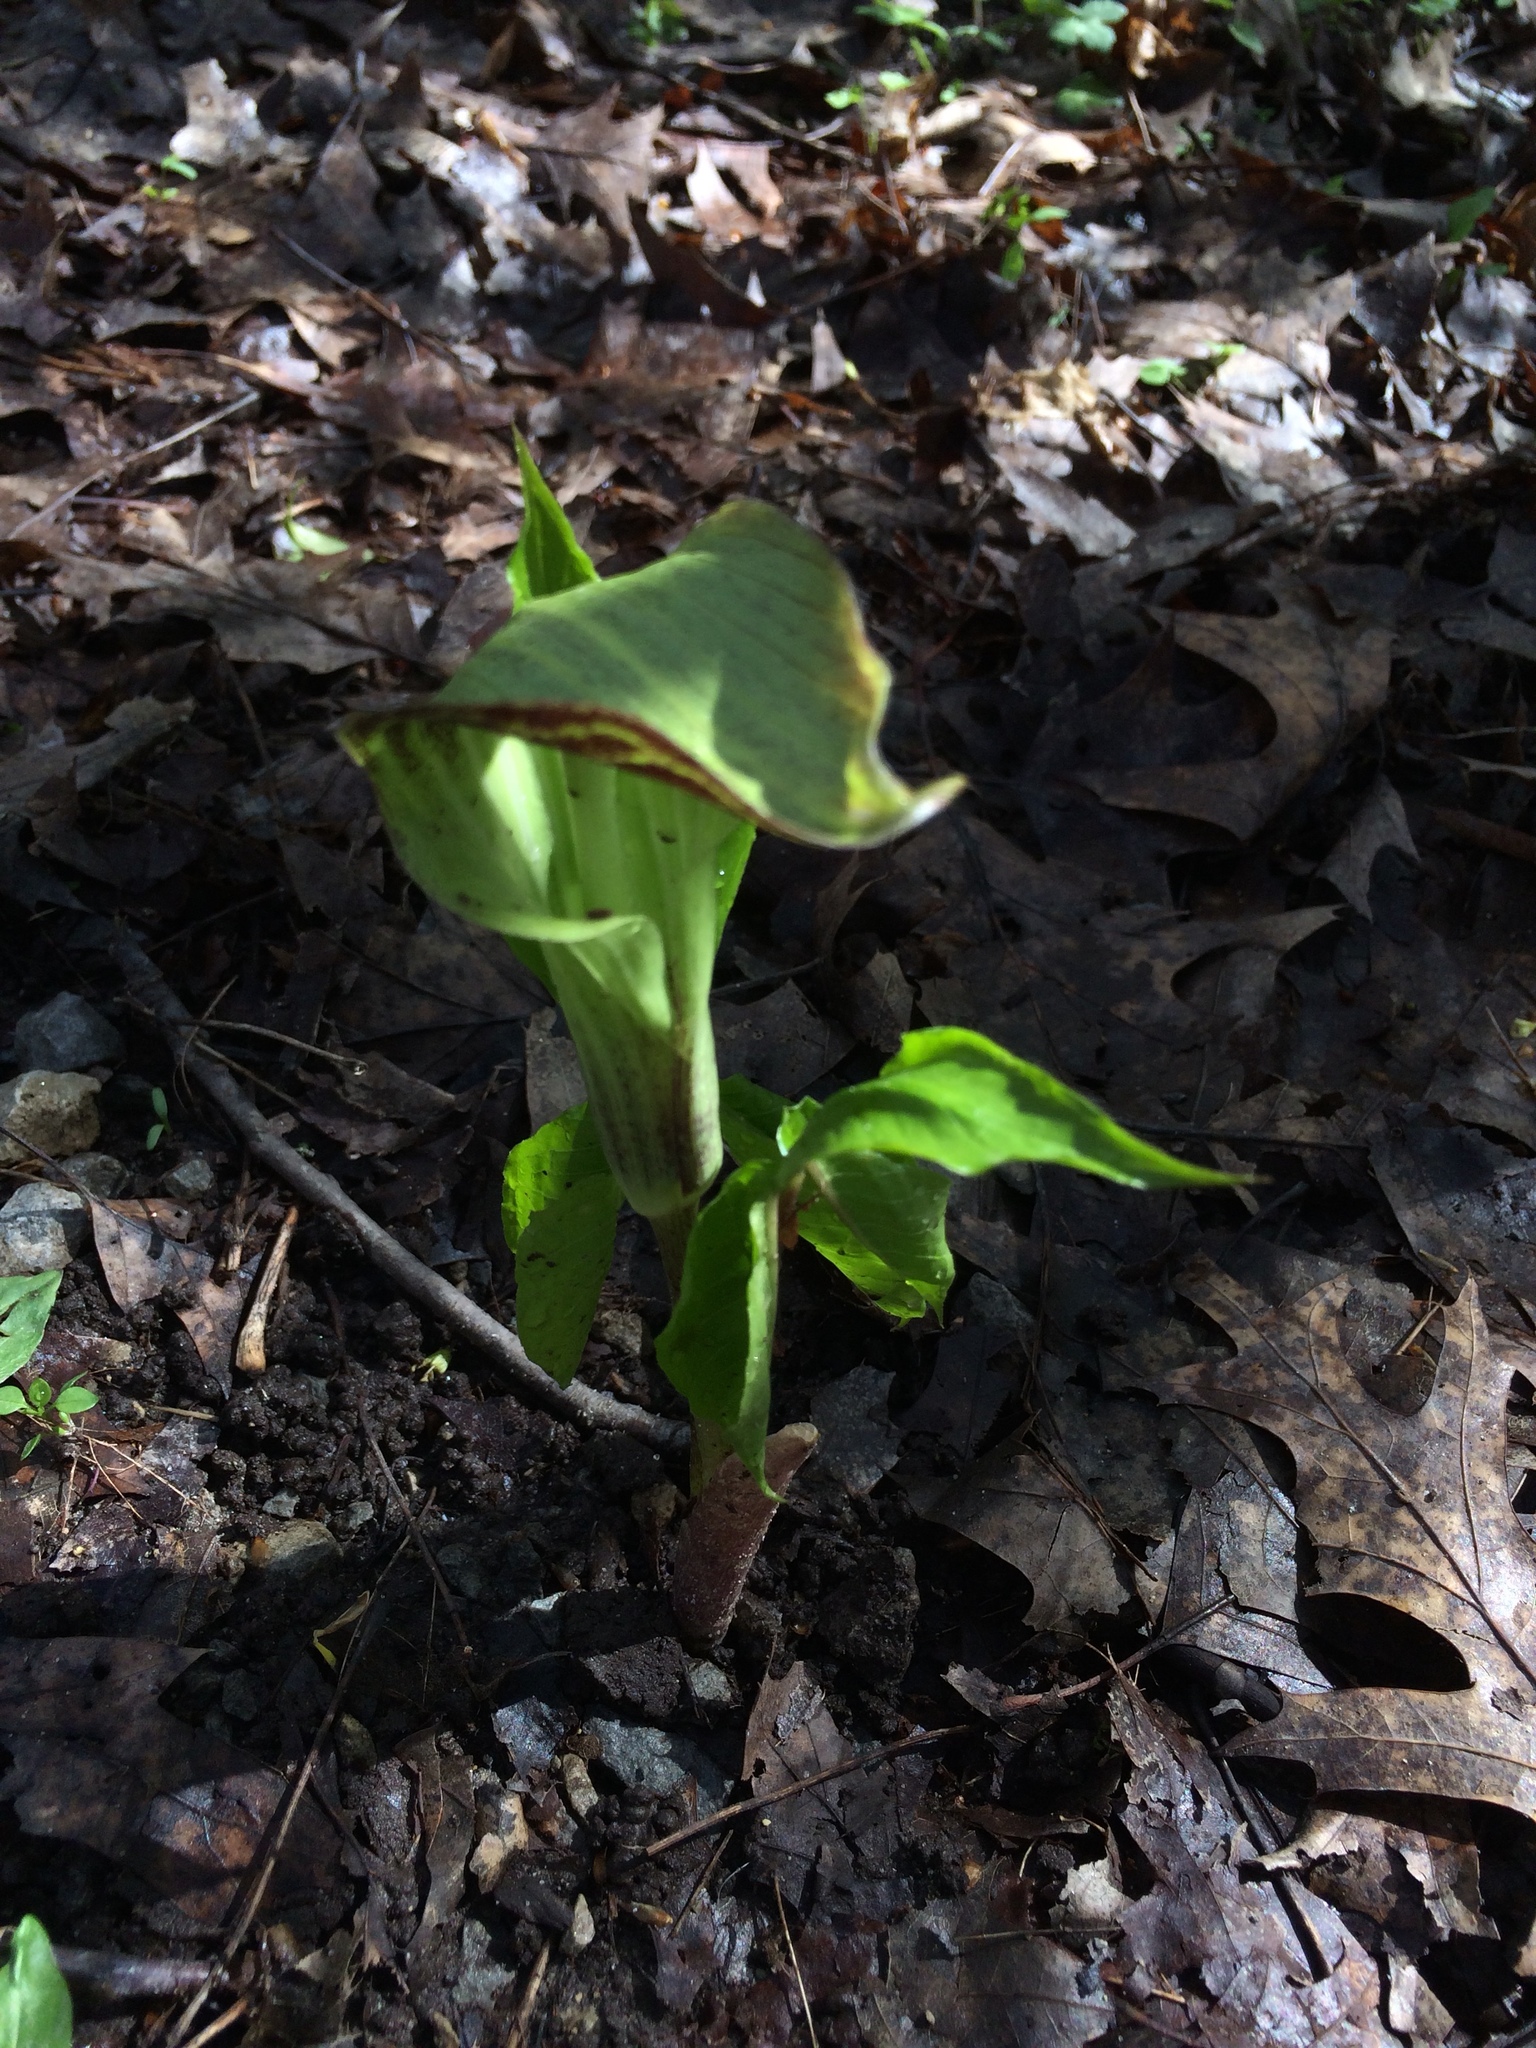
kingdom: Plantae
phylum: Tracheophyta
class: Liliopsida
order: Alismatales
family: Araceae
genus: Arisaema
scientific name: Arisaema triphyllum
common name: Jack-in-the-pulpit
